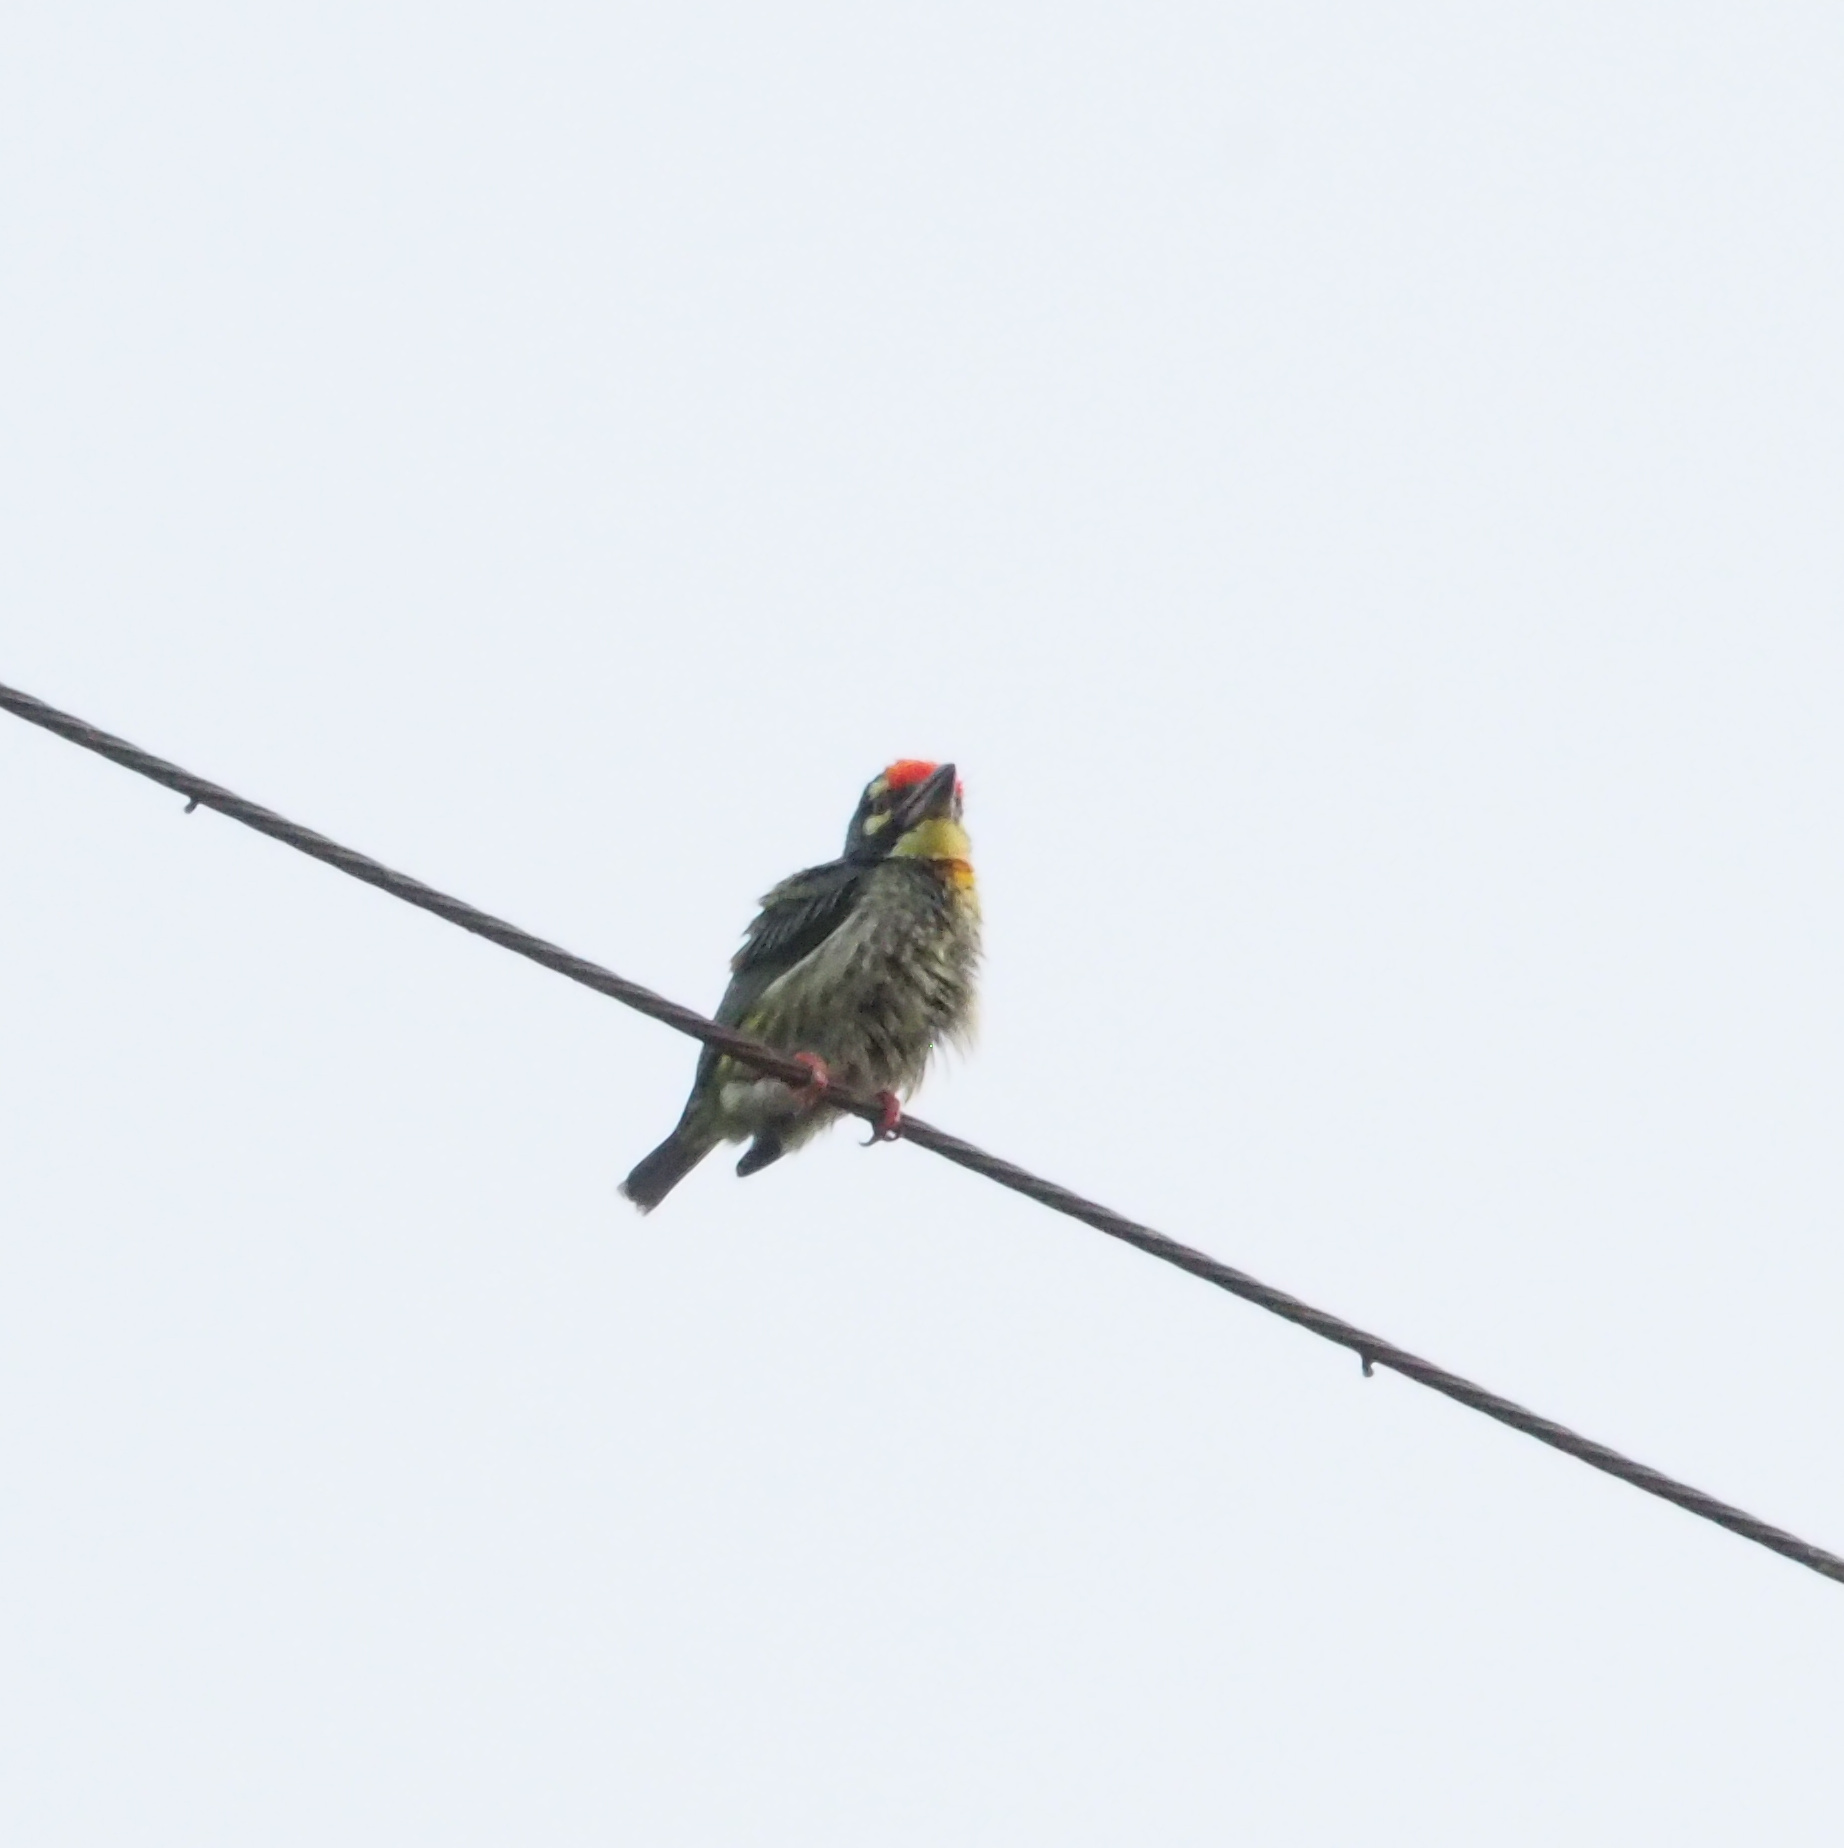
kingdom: Animalia
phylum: Chordata
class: Aves
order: Piciformes
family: Megalaimidae
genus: Psilopogon
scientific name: Psilopogon haemacephalus
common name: Coppersmith barbet
